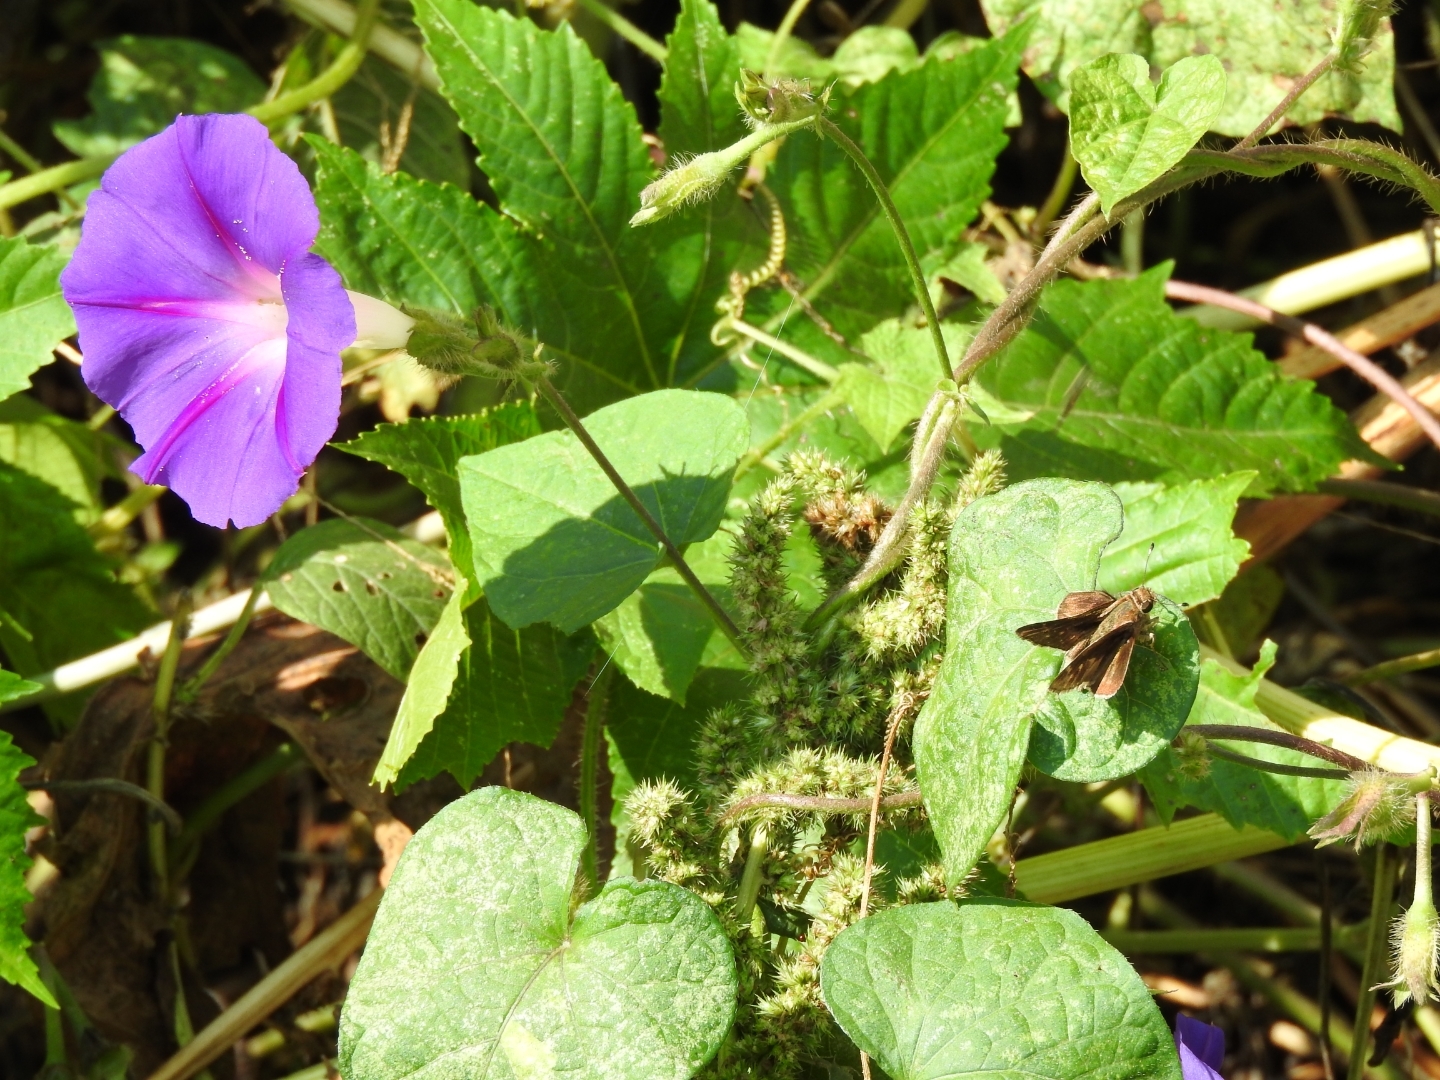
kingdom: Plantae
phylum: Tracheophyta
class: Magnoliopsida
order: Solanales
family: Convolvulaceae
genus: Ipomoea
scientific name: Ipomoea purpurea
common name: Common morning-glory
